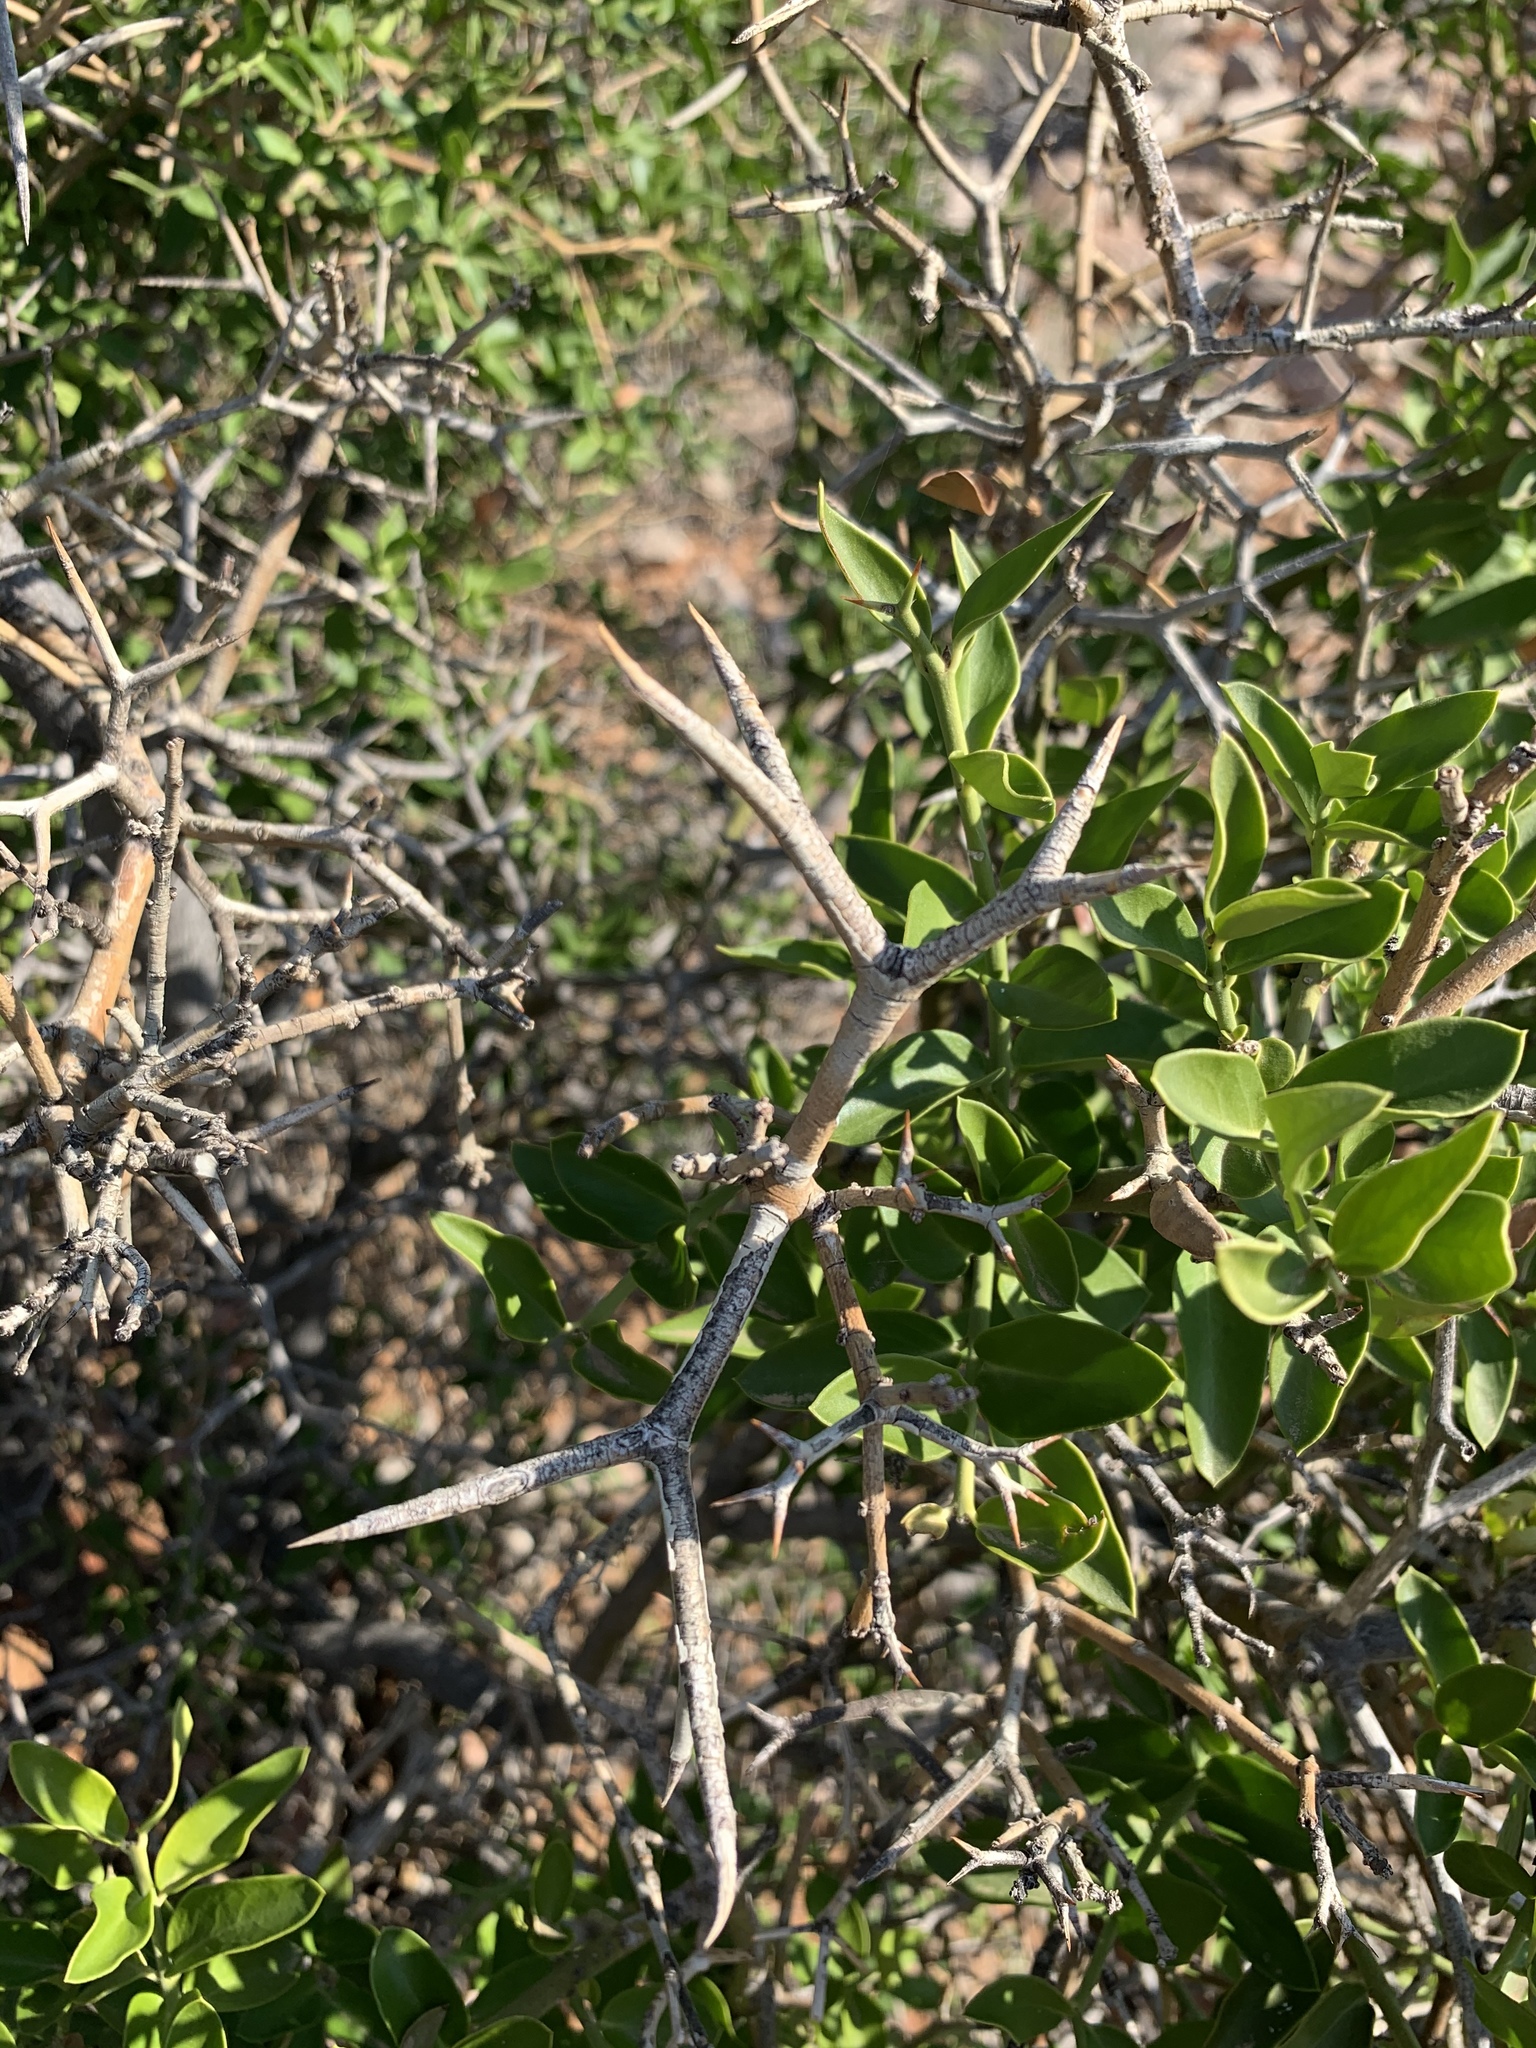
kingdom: Plantae
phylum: Tracheophyta
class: Magnoliopsida
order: Gentianales
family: Apocynaceae
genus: Carissa
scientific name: Carissa haematocarpa
